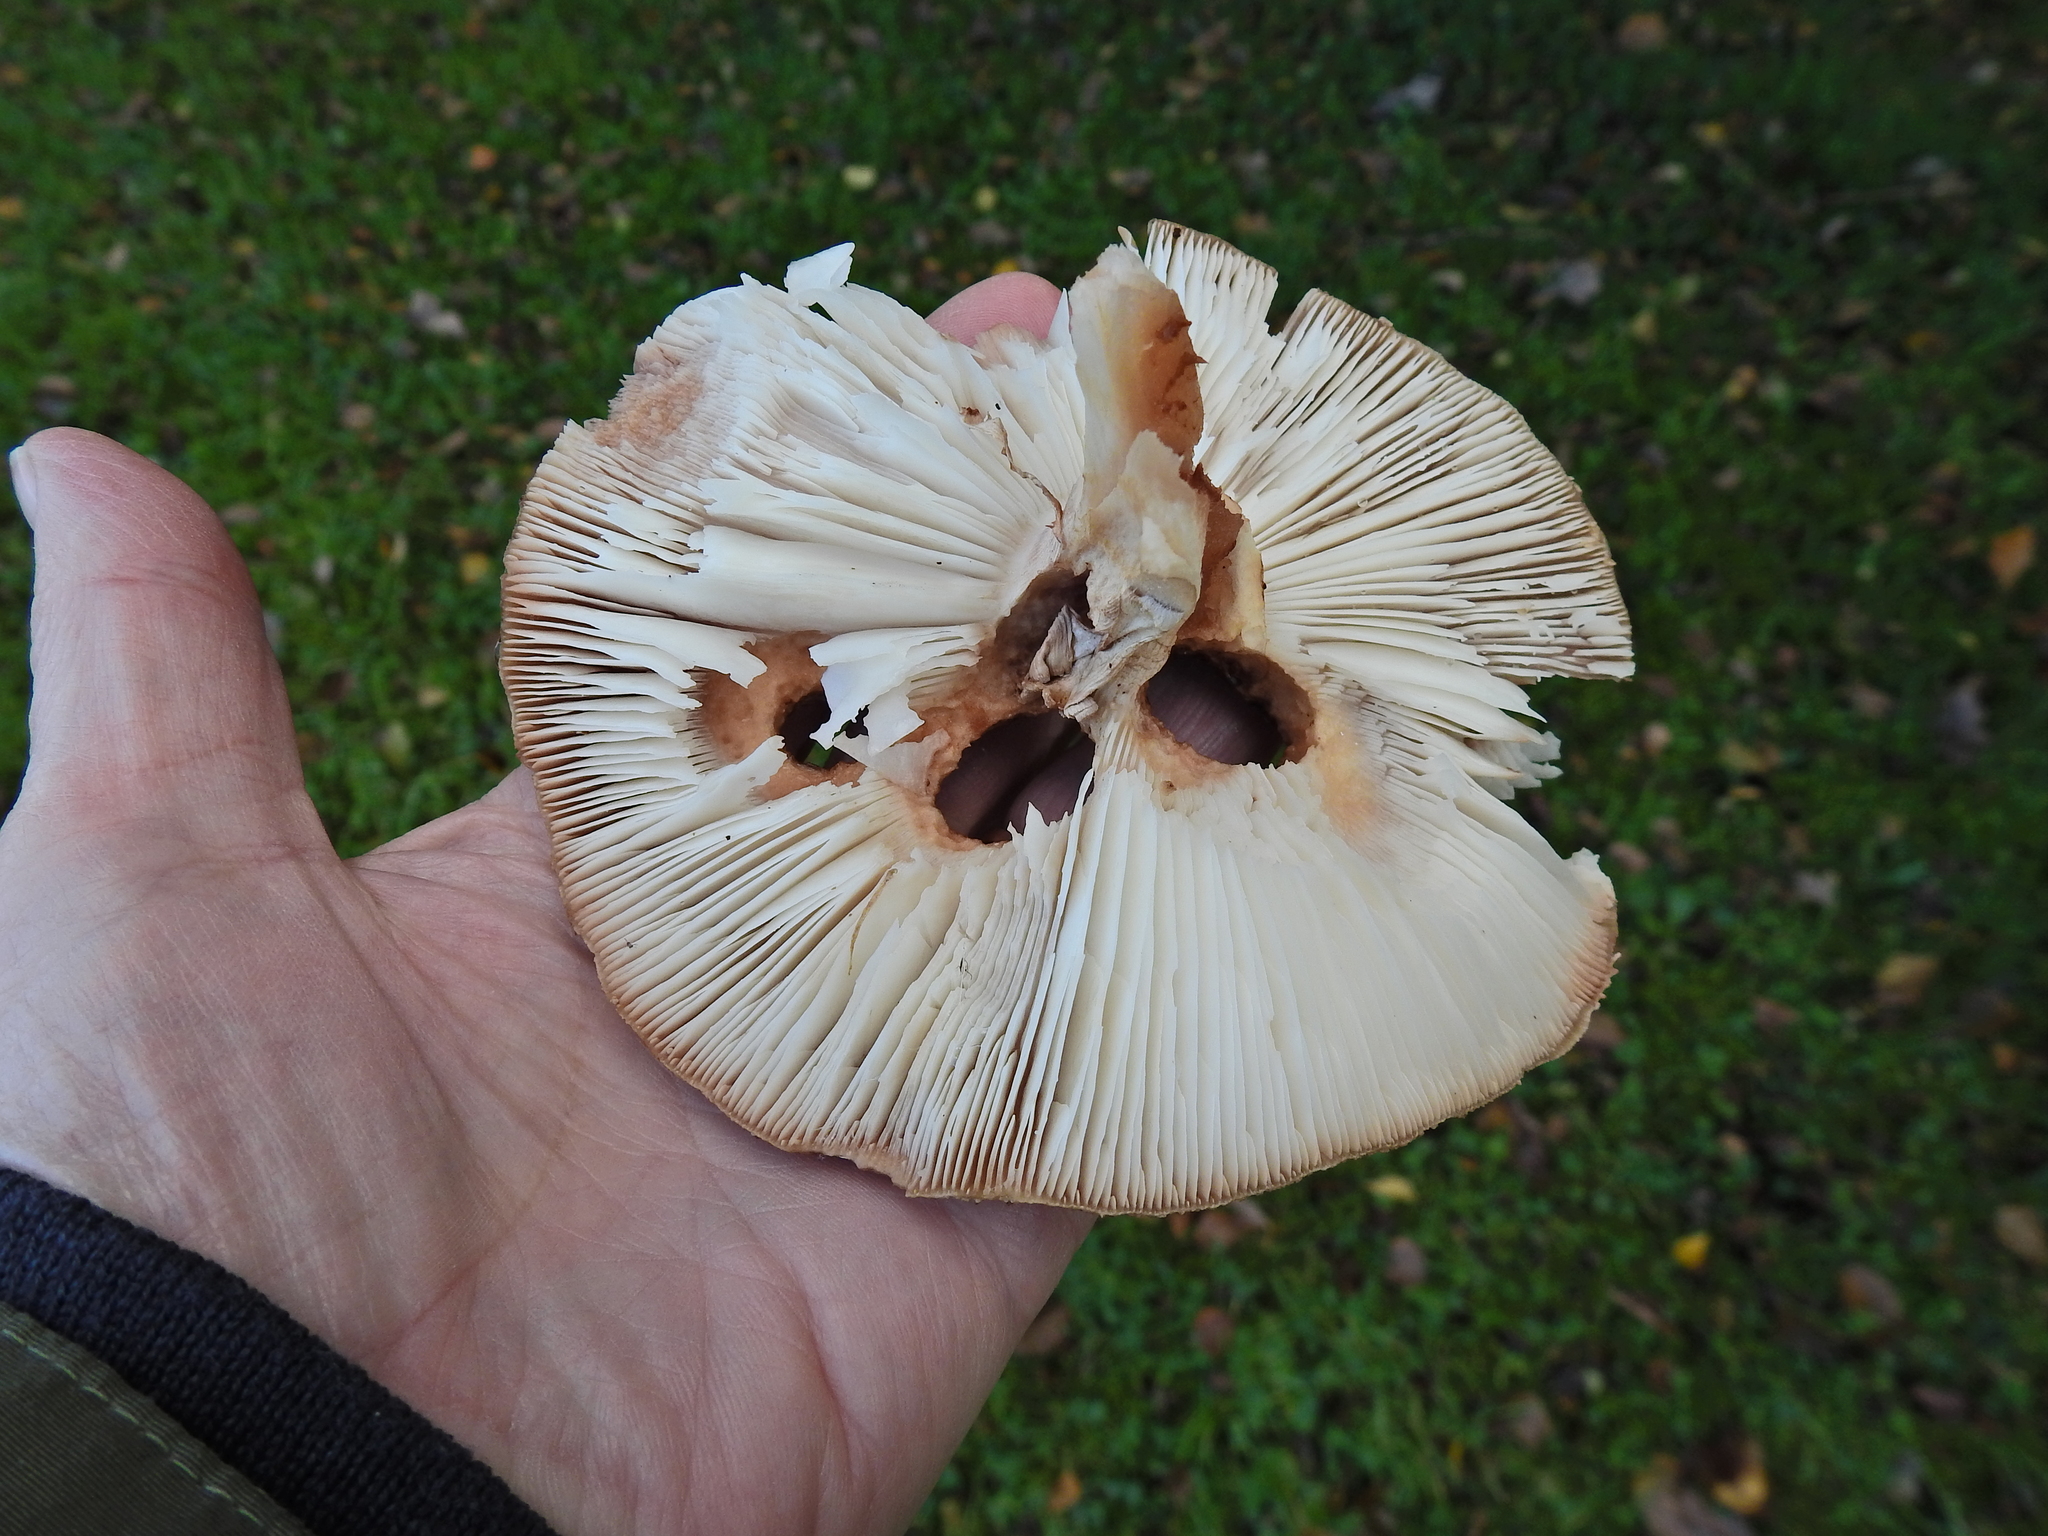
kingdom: Fungi
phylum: Basidiomycota
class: Agaricomycetes
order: Agaricales
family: Amanitaceae
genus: Amanita
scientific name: Amanita rubescens
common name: Blusher
